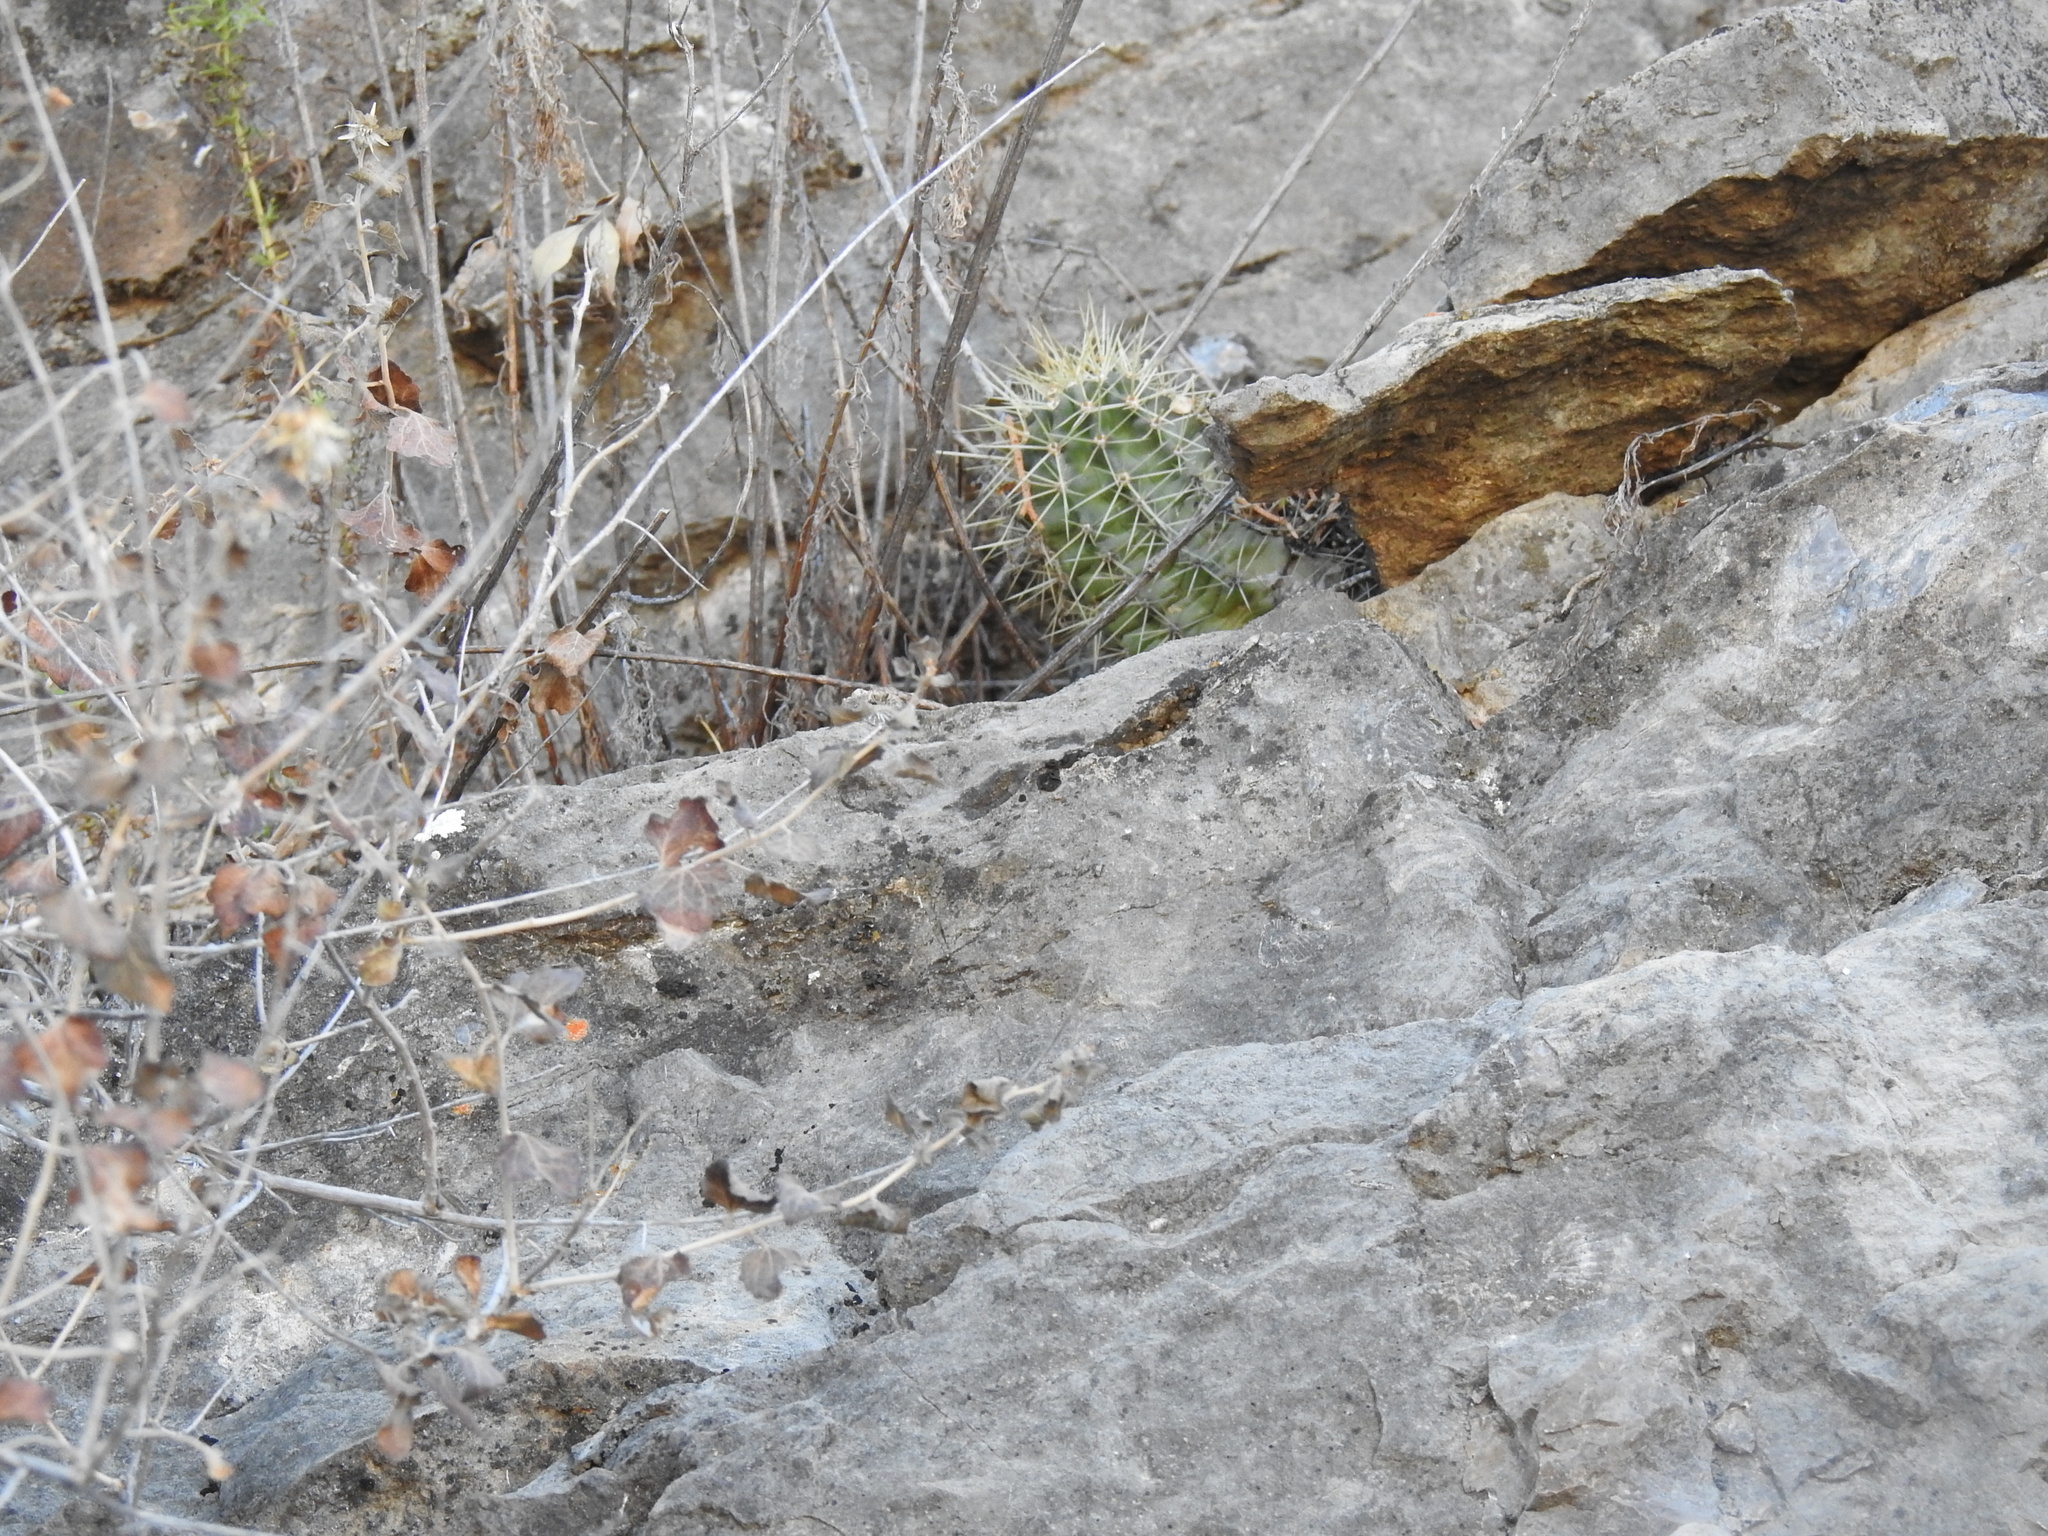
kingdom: Plantae
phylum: Tracheophyta
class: Magnoliopsida
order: Caryophyllales
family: Cactaceae
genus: Echinocereus
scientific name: Echinocereus coccineus
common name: Scarlet hedgehog cactus
